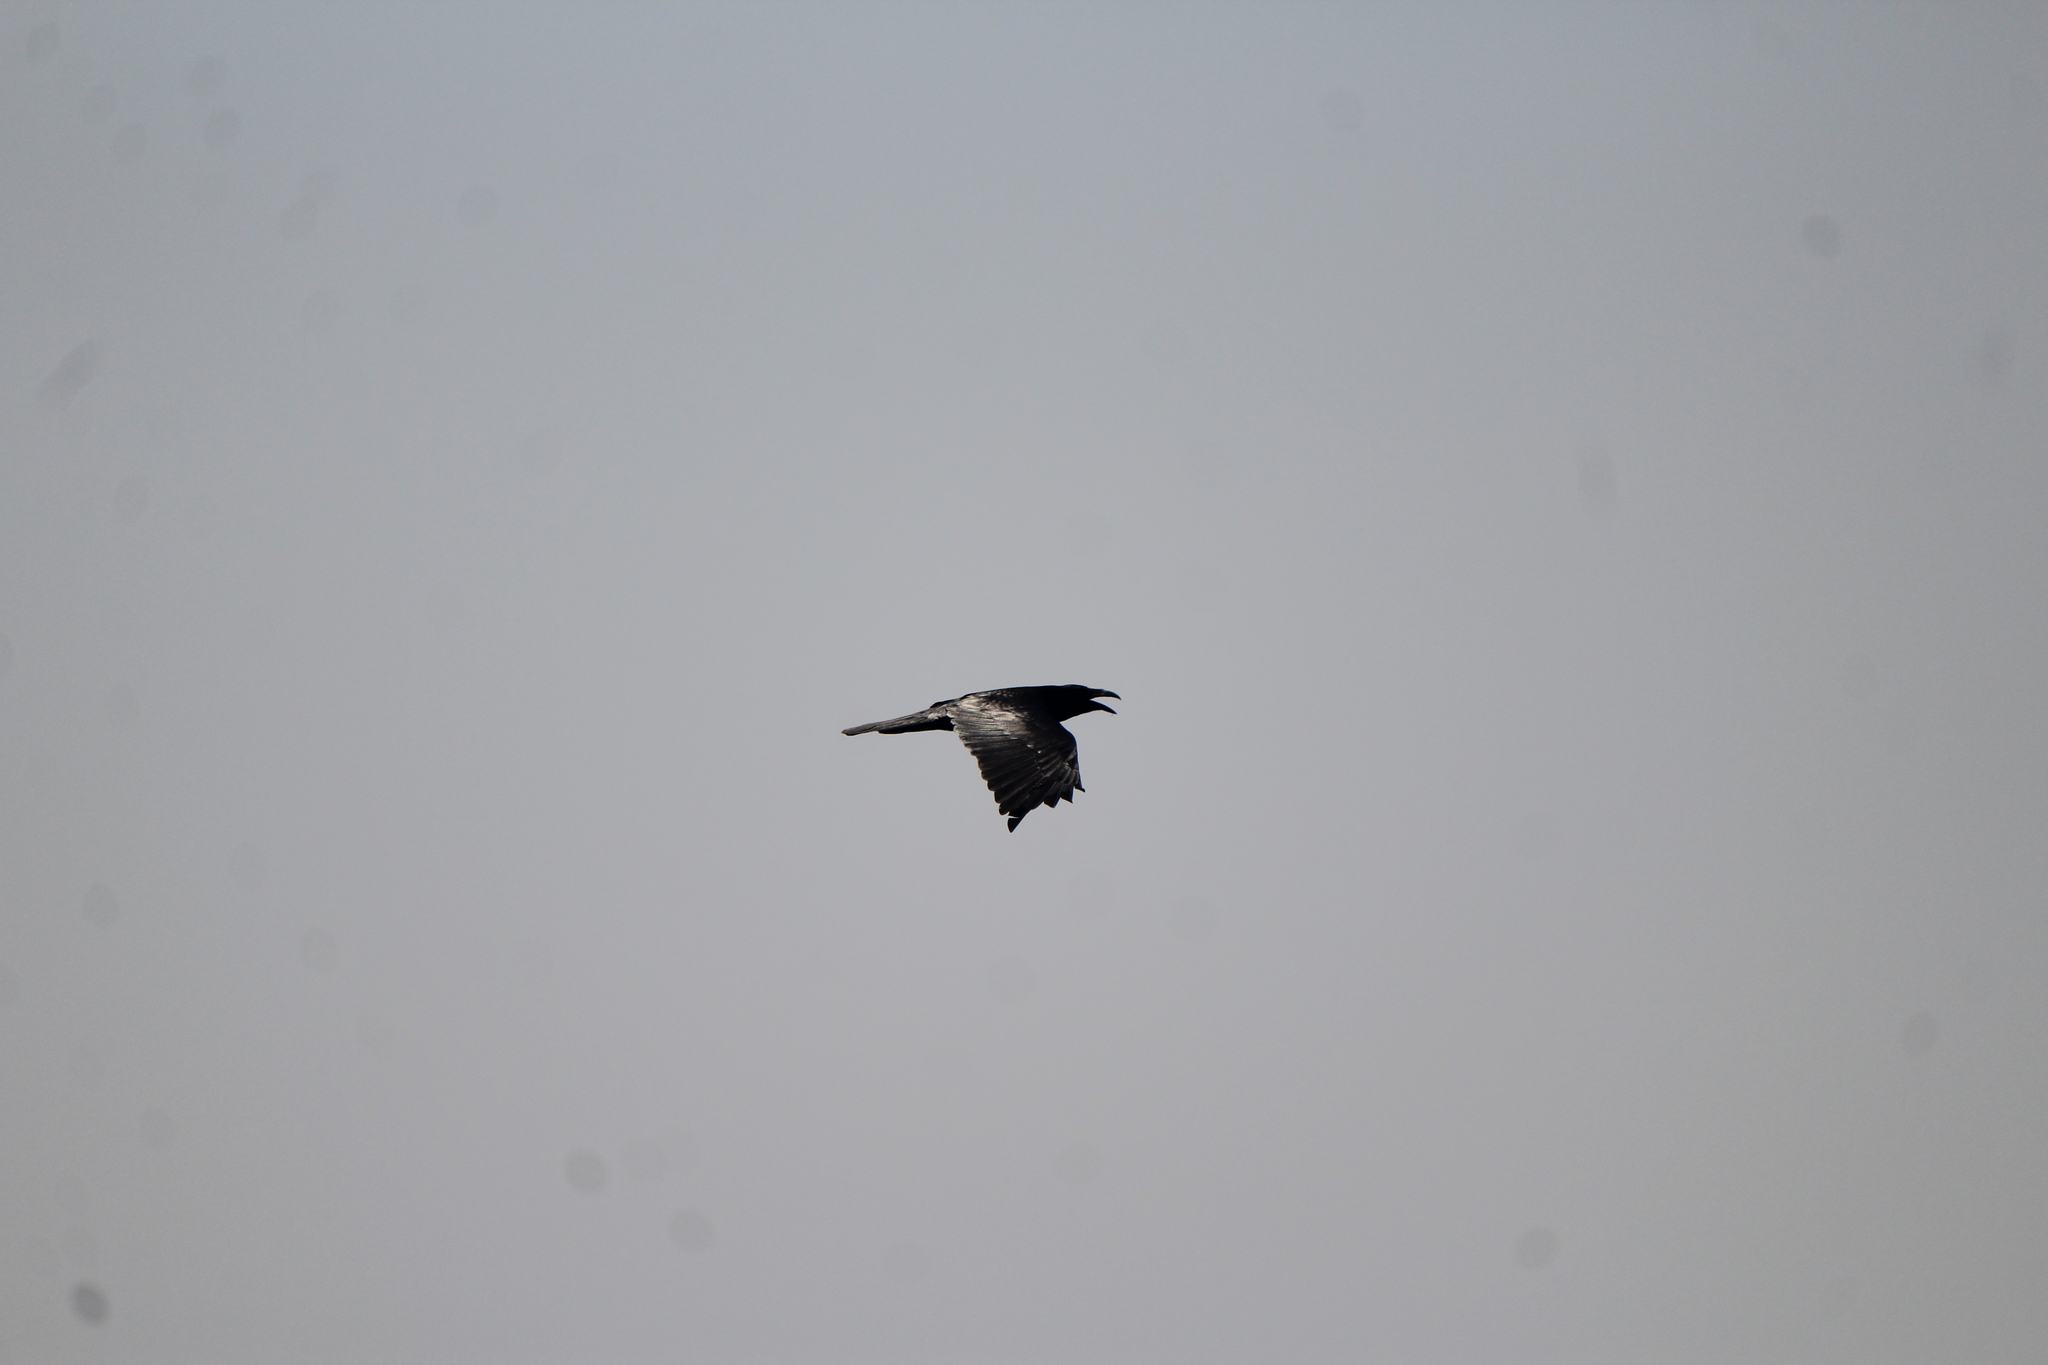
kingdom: Animalia
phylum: Chordata
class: Aves
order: Passeriformes
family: Corvidae
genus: Corvus
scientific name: Corvus corax
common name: Common raven
